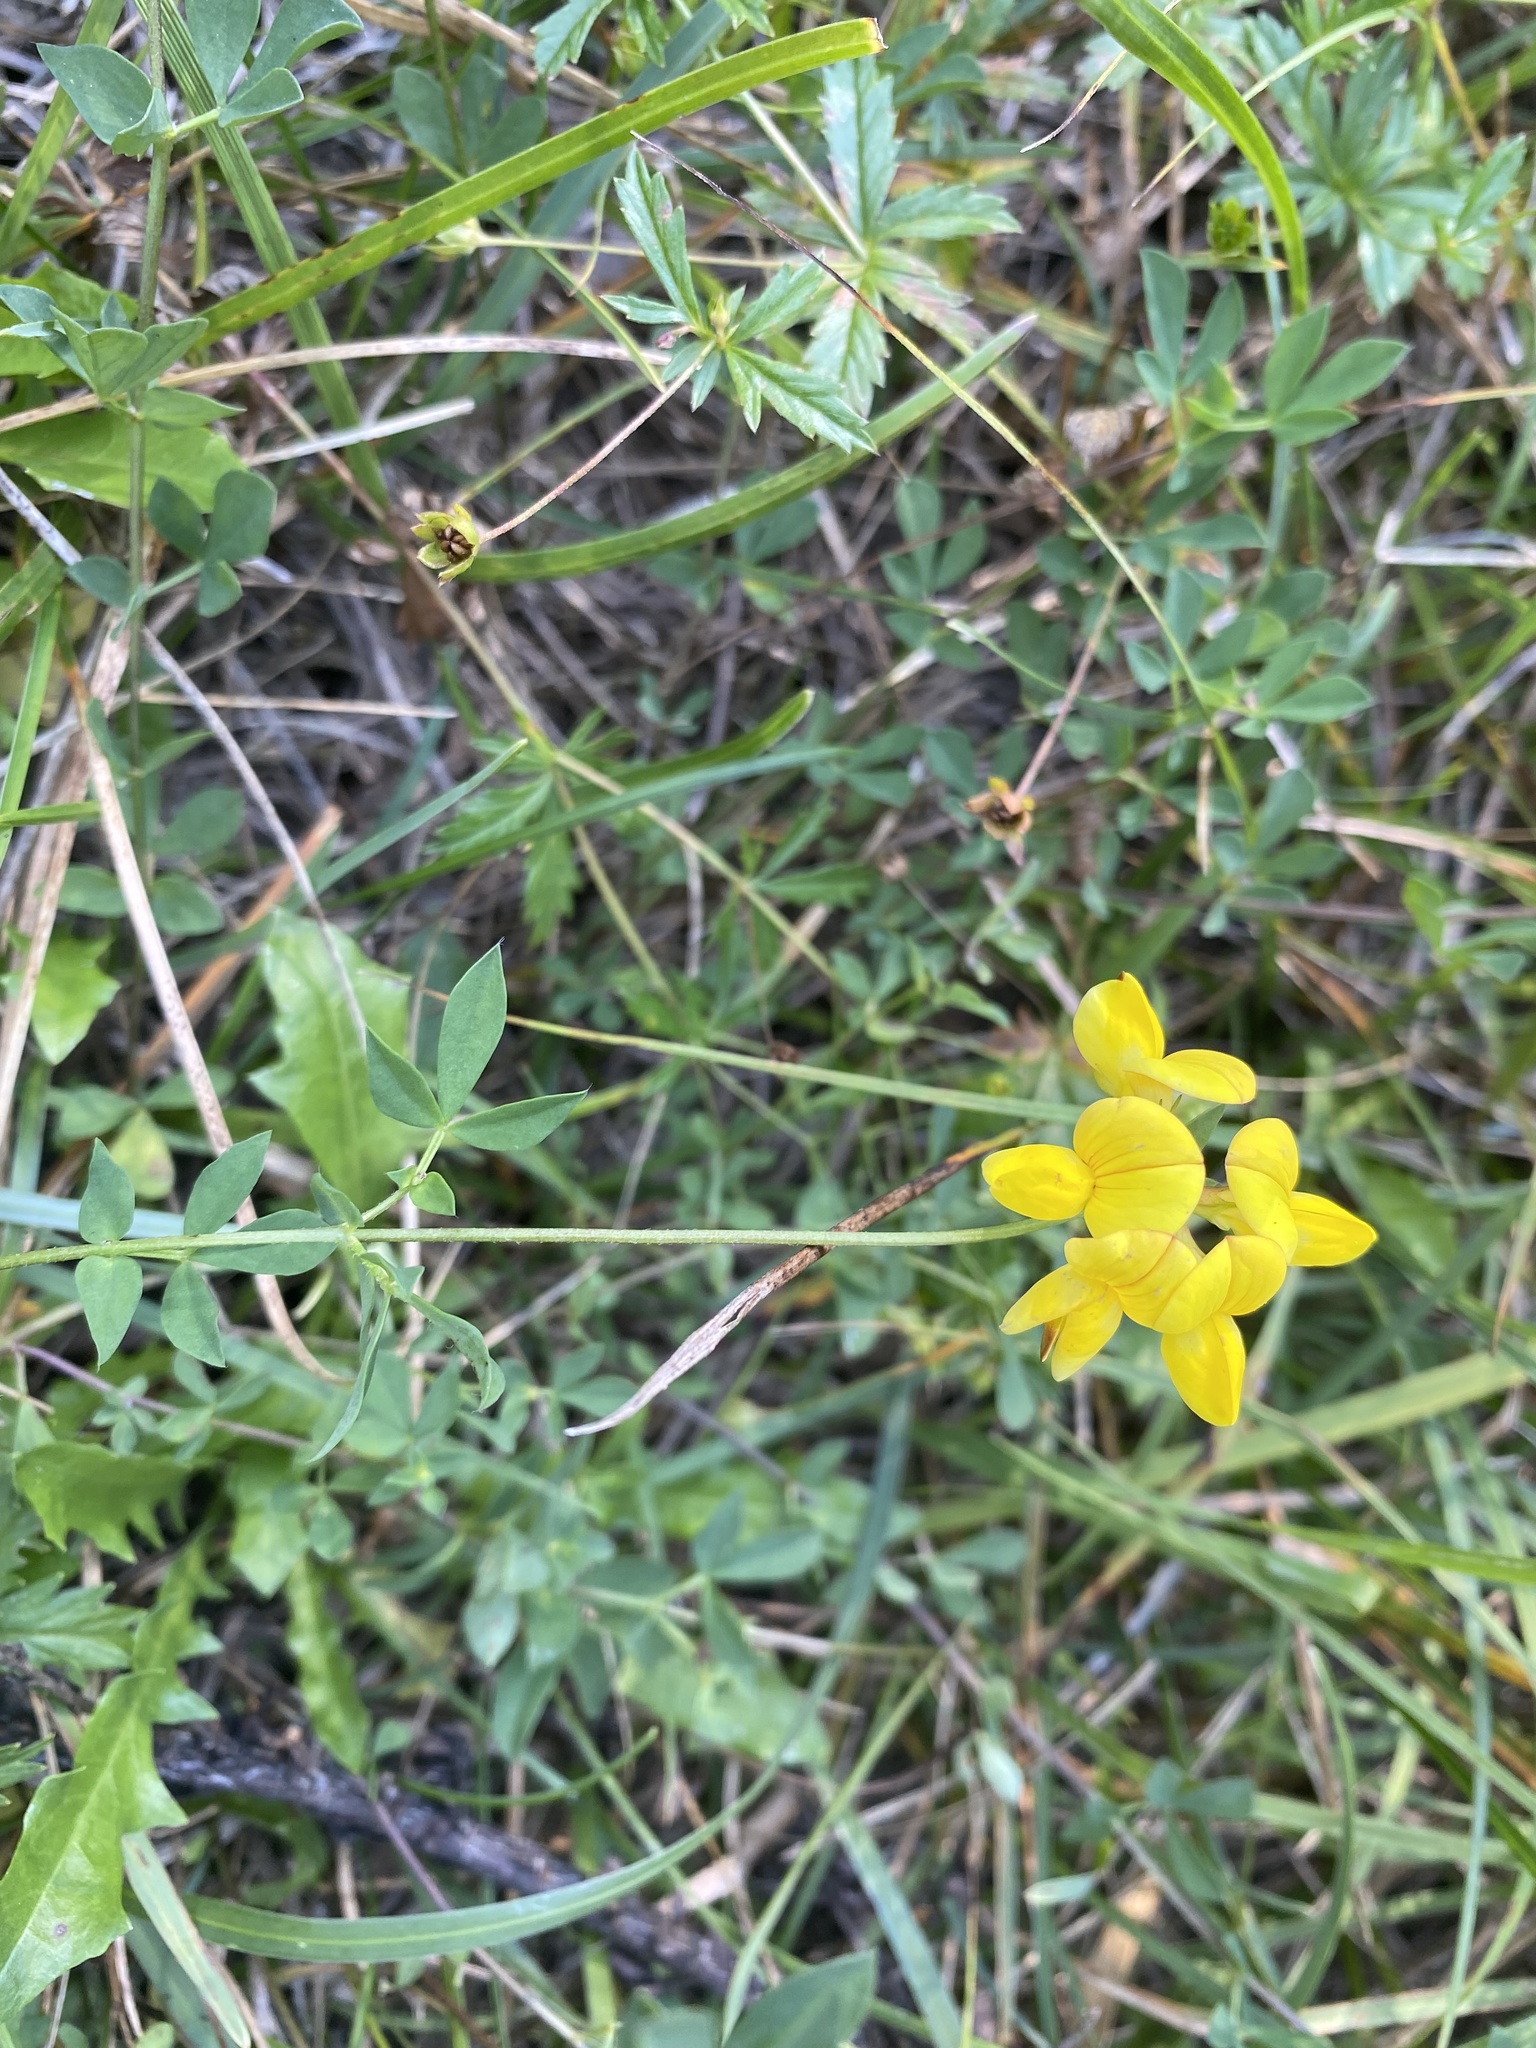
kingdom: Plantae
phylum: Tracheophyta
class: Magnoliopsida
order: Fabales
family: Fabaceae
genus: Lotus
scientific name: Lotus corniculatus
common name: Common bird's-foot-trefoil
